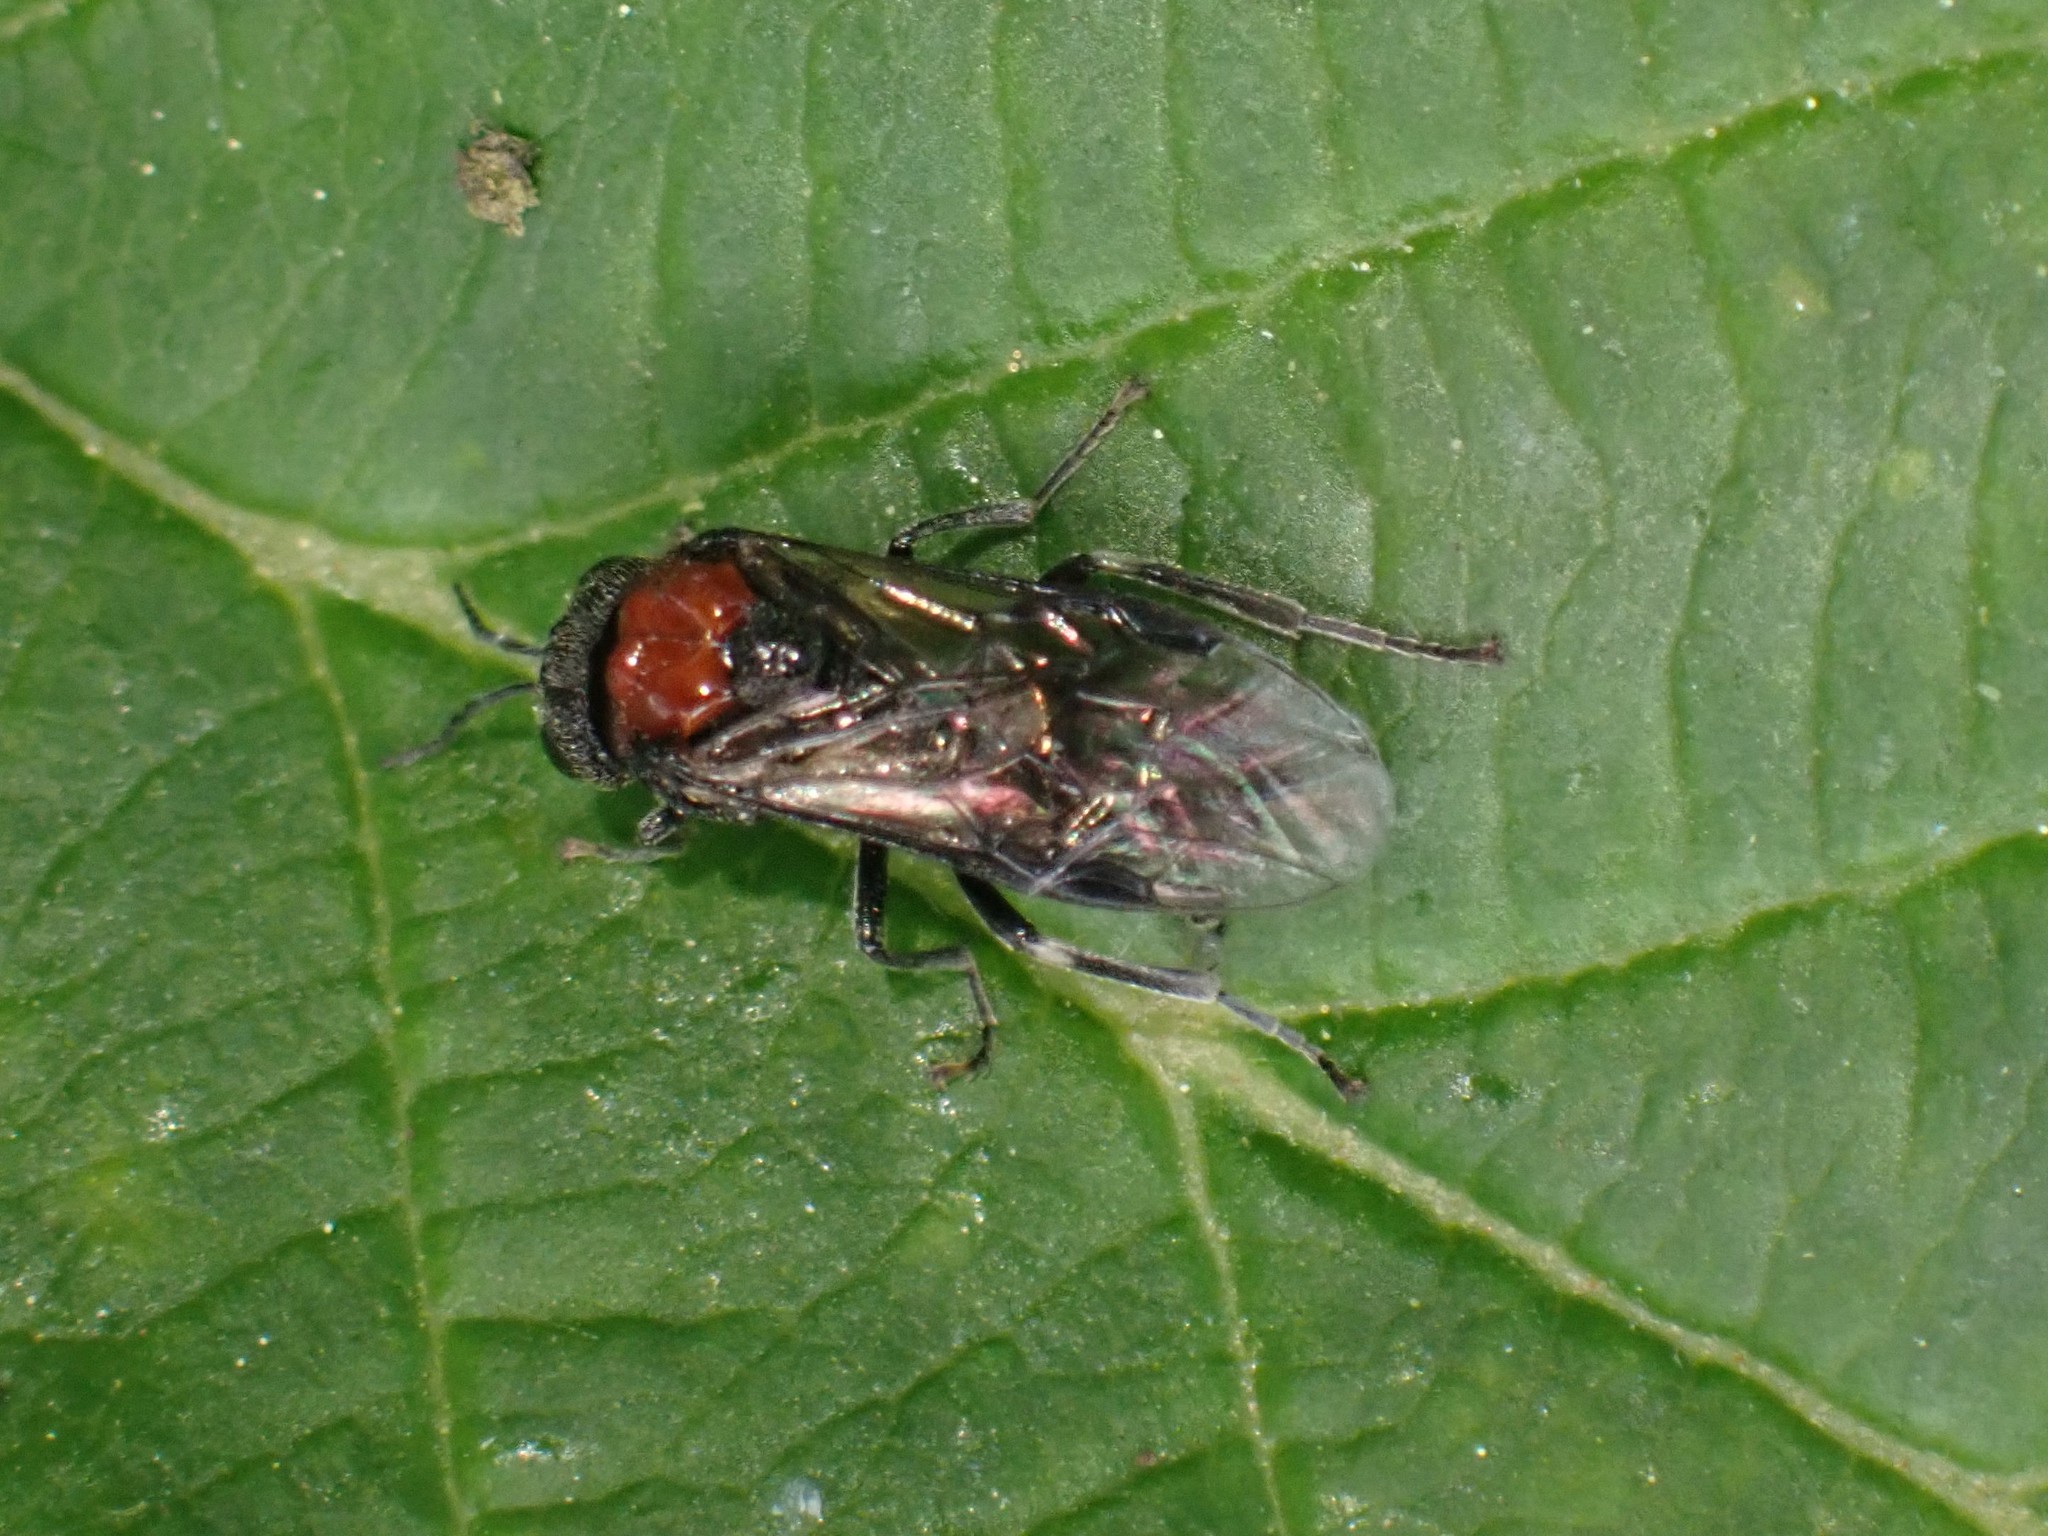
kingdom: Animalia
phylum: Arthropoda
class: Insecta
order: Hymenoptera
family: Tenthredinidae
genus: Eriocampa
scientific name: Eriocampa ovata
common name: Alder wooly sawfly
